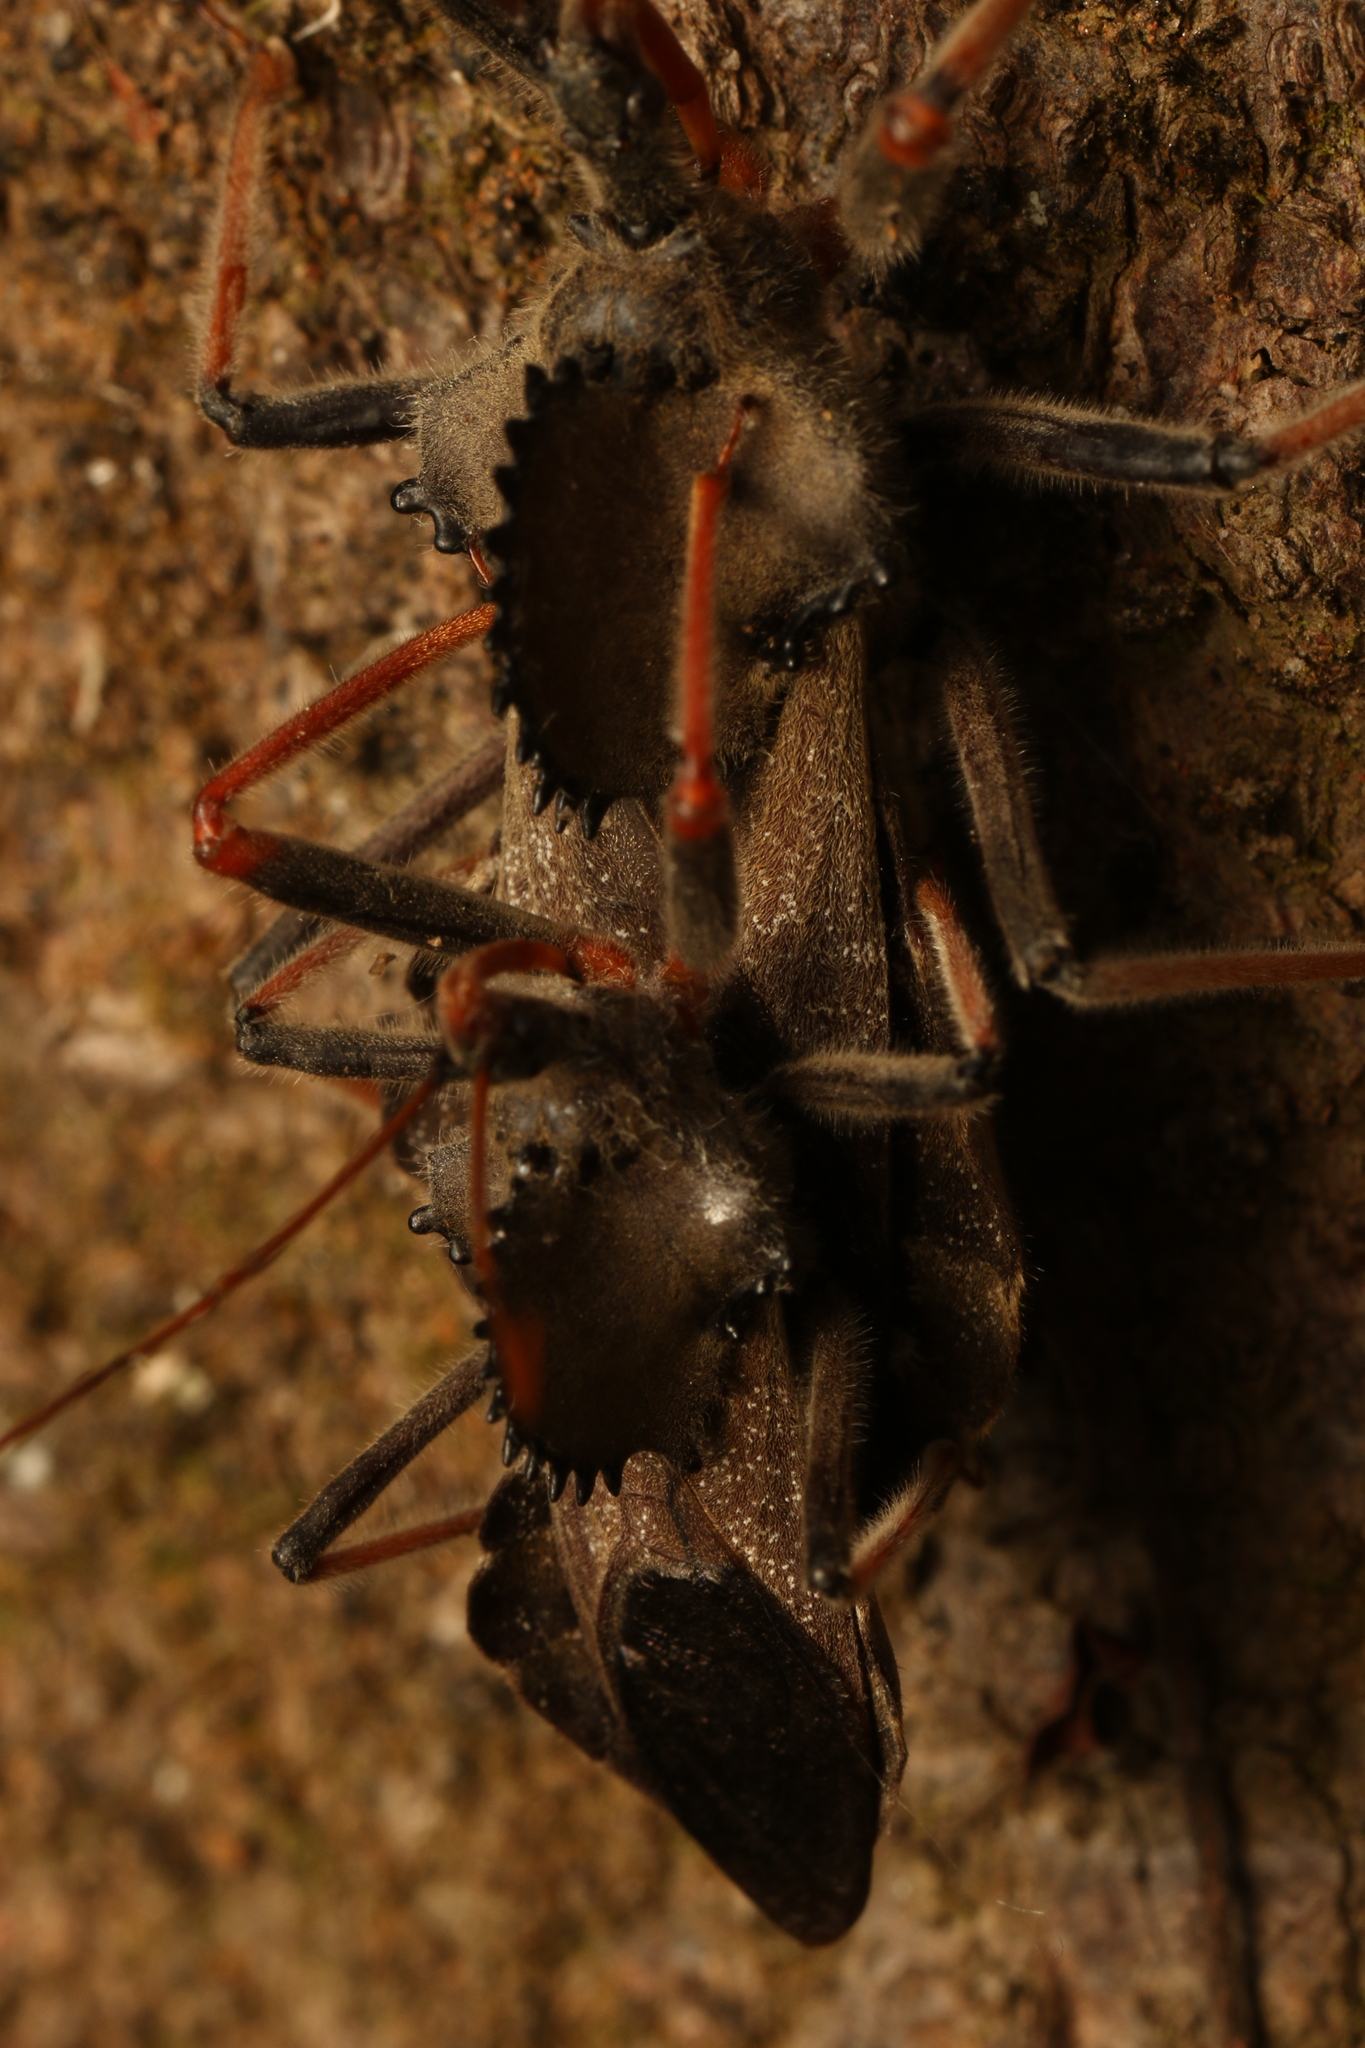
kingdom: Animalia
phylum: Arthropoda
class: Insecta
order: Hemiptera
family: Reduviidae
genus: Arilus
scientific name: Arilus carinatus
